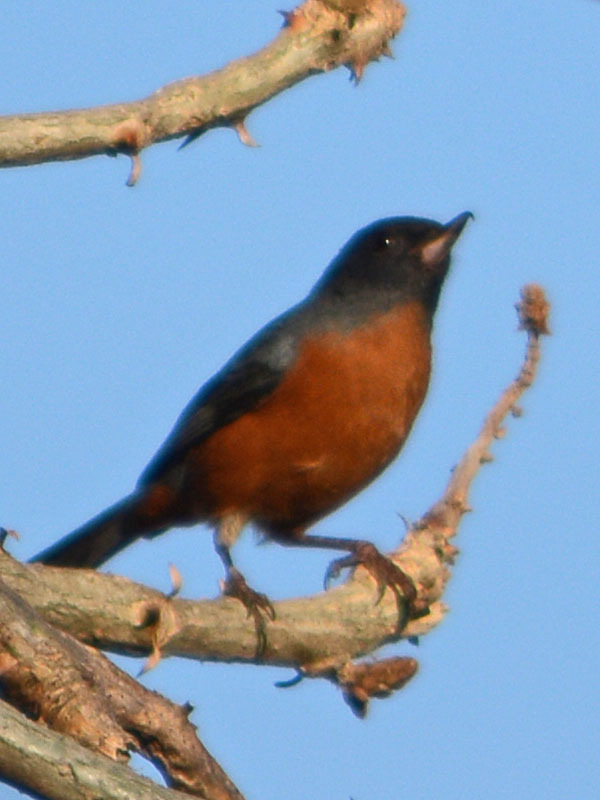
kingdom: Animalia
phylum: Chordata
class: Aves
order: Passeriformes
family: Thraupidae
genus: Diglossa
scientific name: Diglossa baritula
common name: Cinnamon-bellied flowerpiercer
